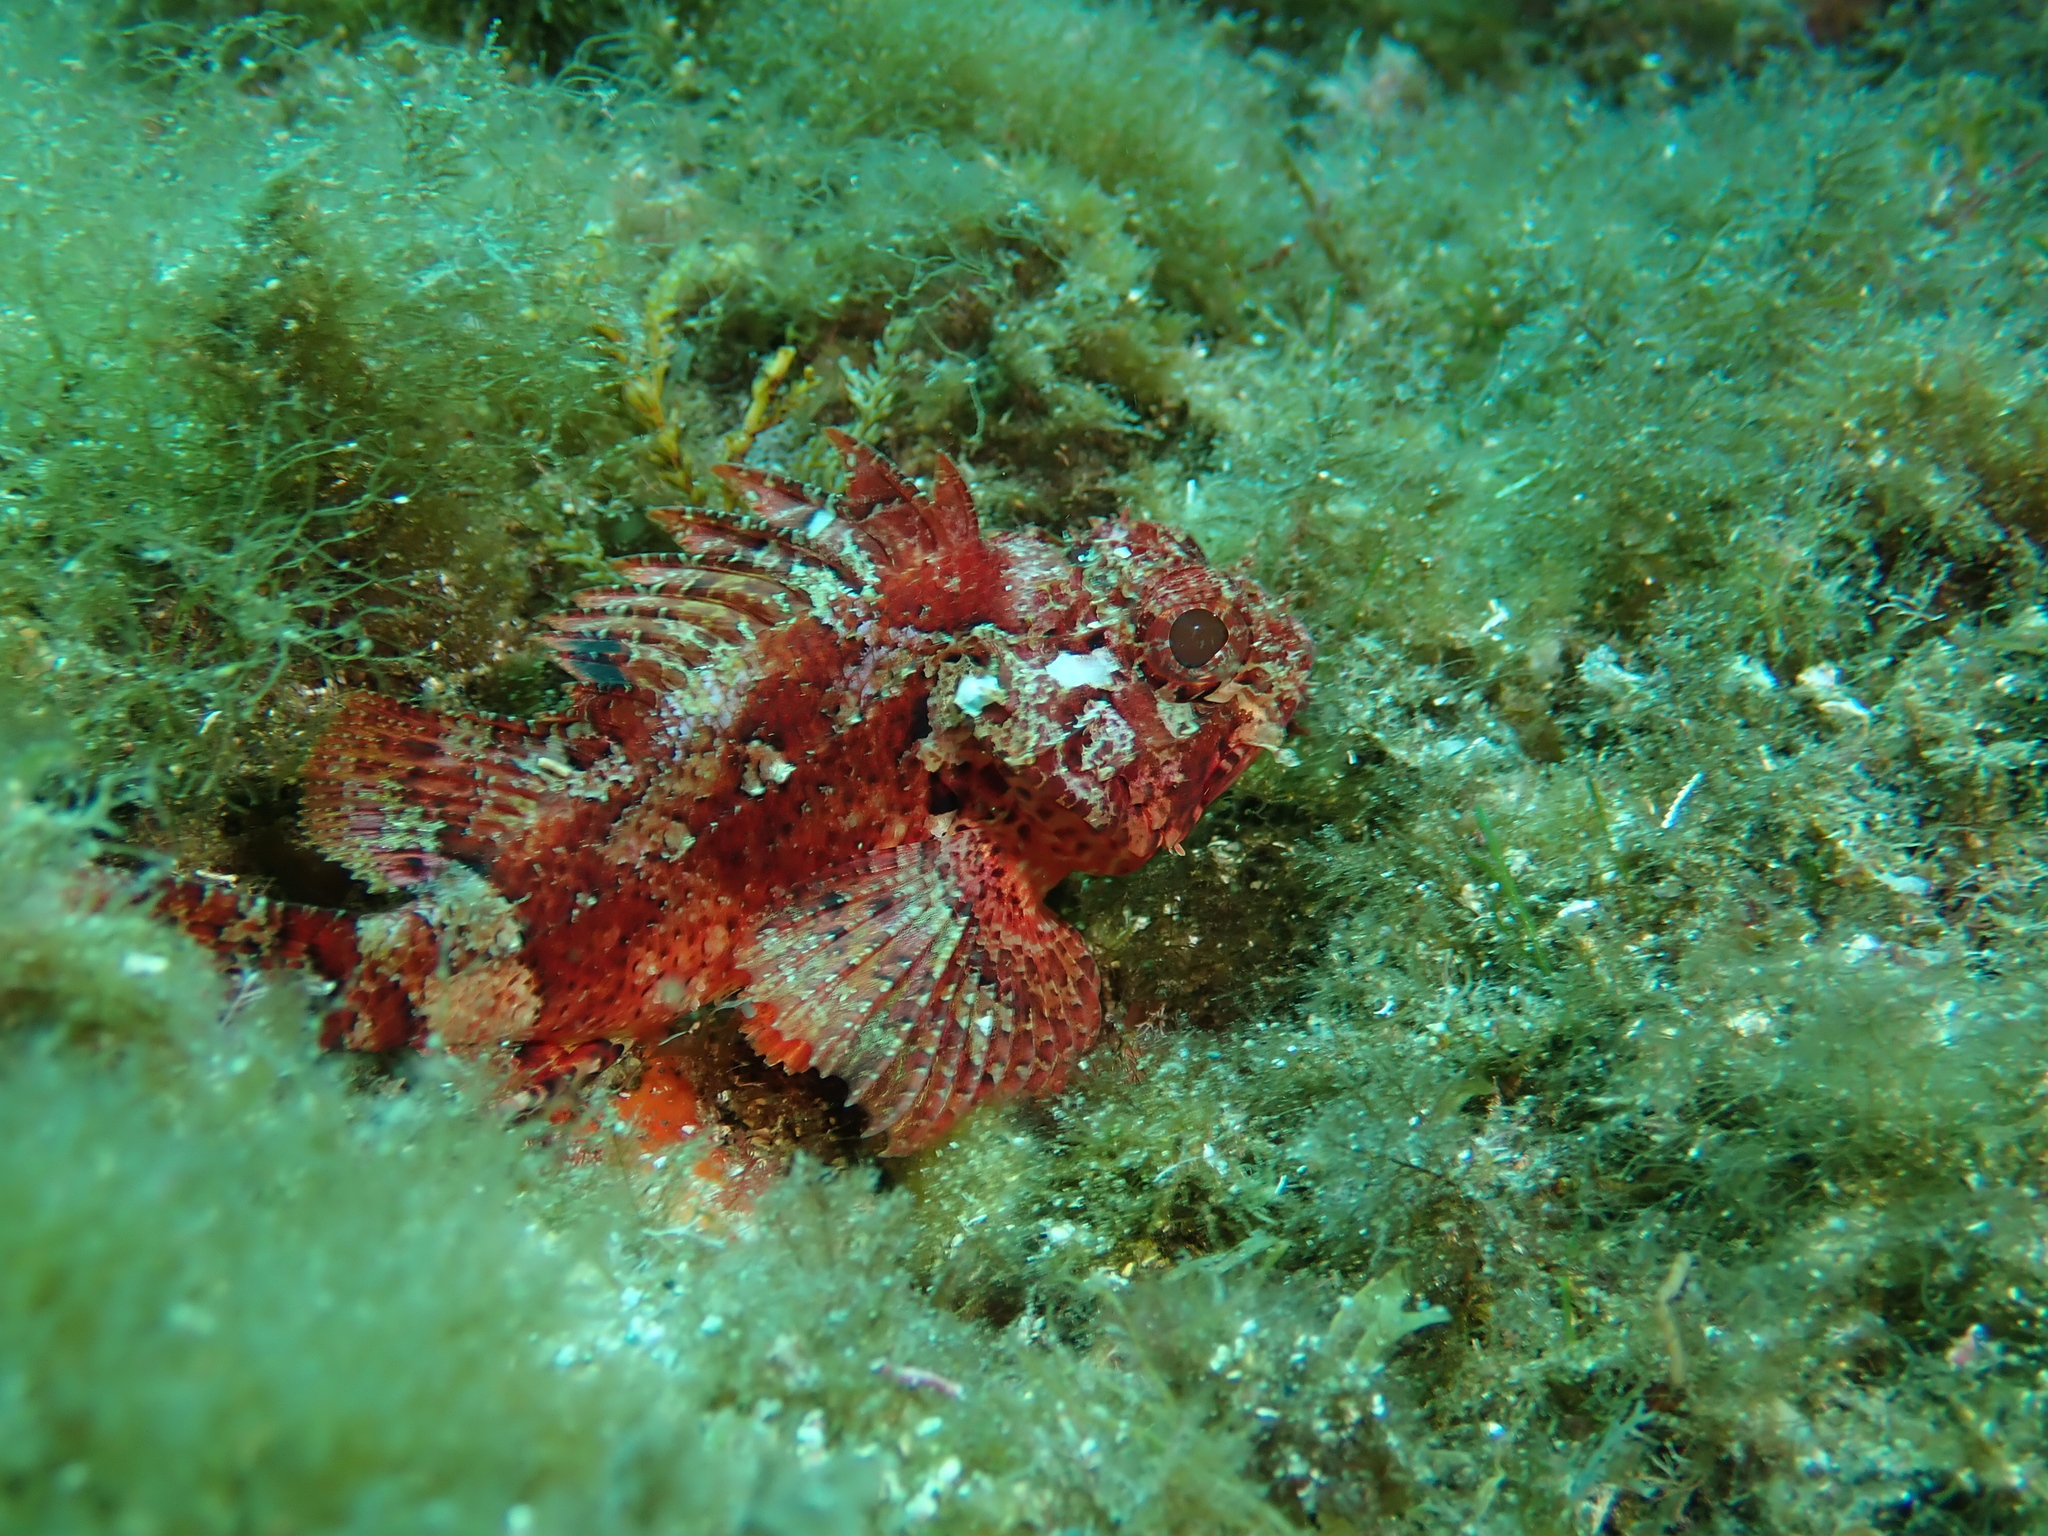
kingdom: Animalia
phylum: Chordata
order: Scorpaeniformes
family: Scorpaenidae
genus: Scorpaena
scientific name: Scorpaena notata
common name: Small red scorpionfish
